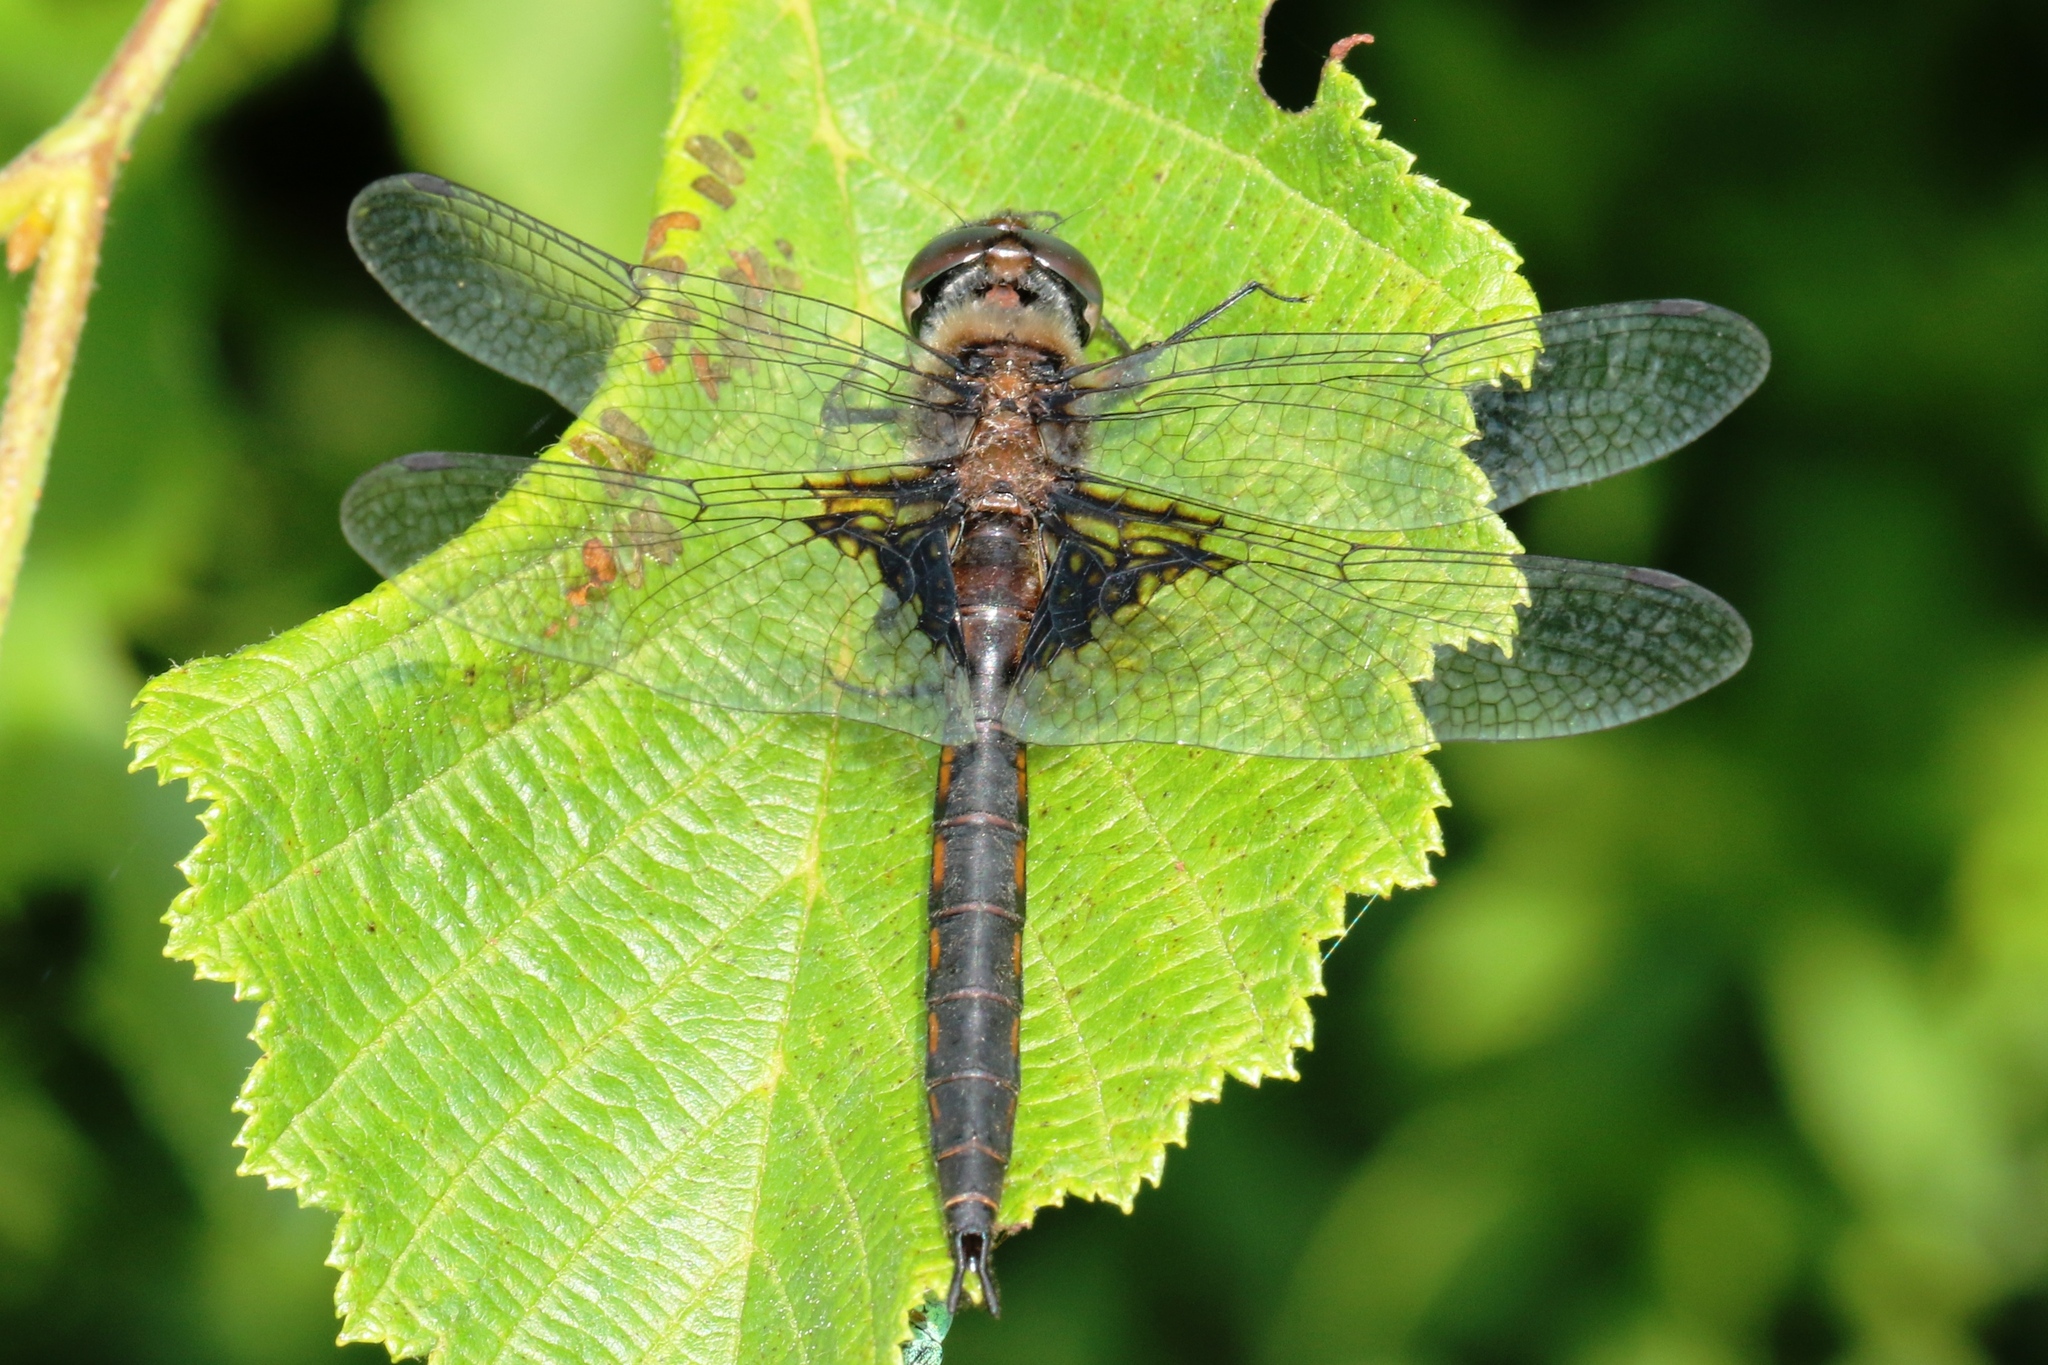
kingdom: Animalia
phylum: Arthropoda
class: Insecta
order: Odonata
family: Corduliidae
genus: Epitheca
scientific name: Epitheca cynosura
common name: Common baskettail
